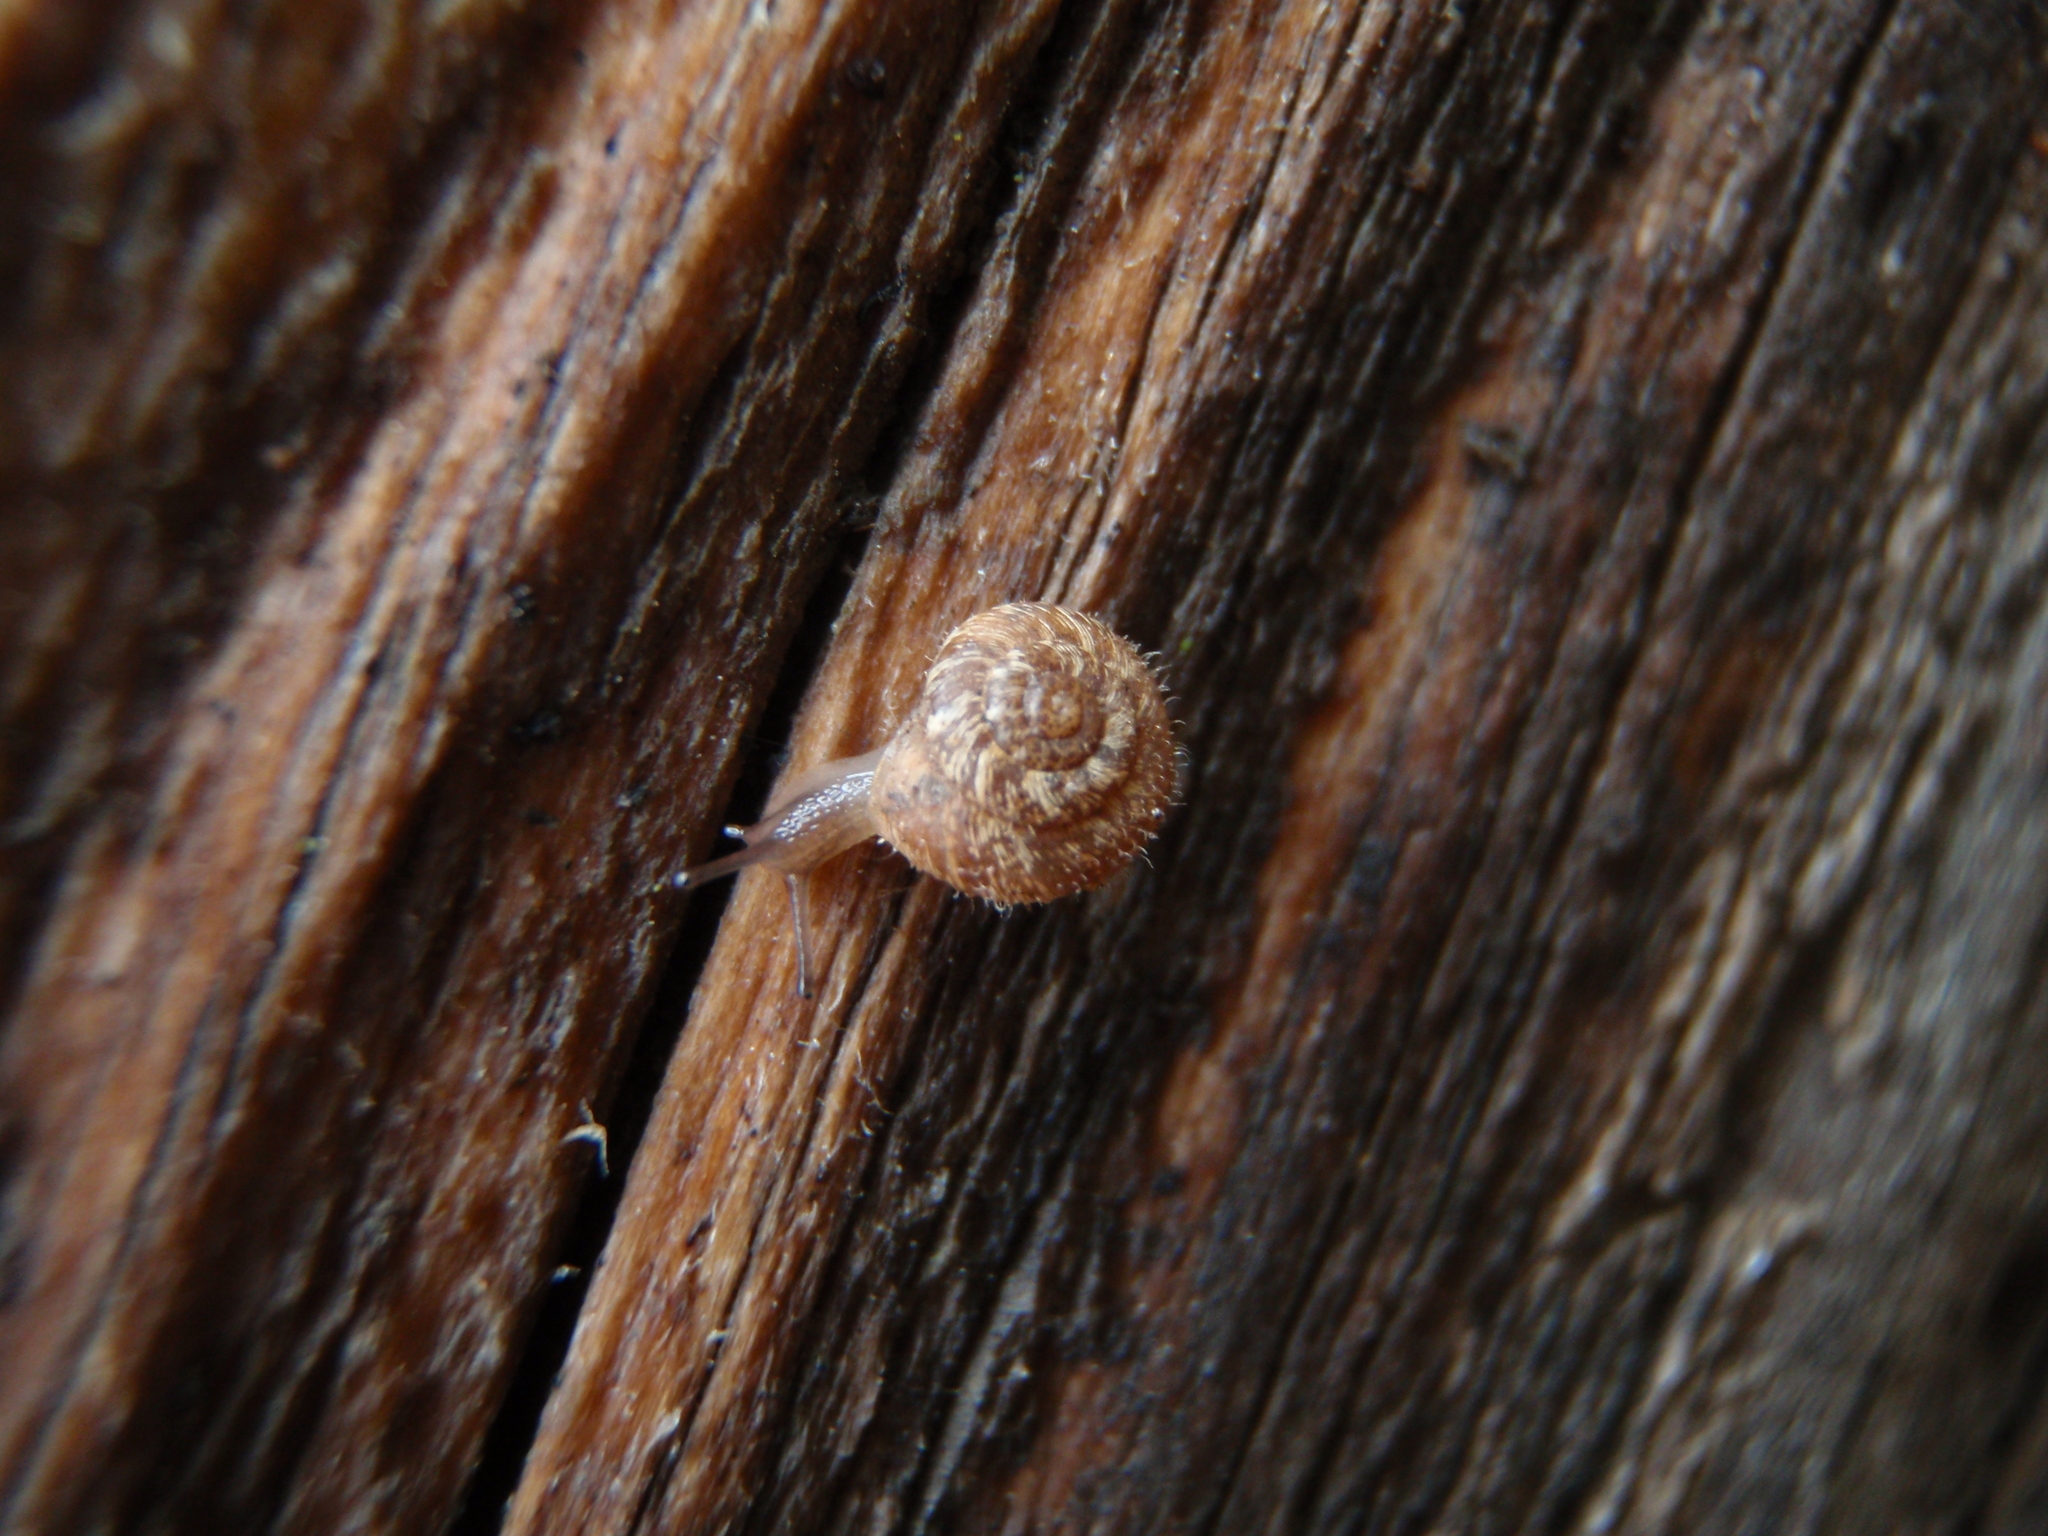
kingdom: Animalia
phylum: Mollusca
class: Gastropoda
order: Stylommatophora
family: Geomitridae
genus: Xerotricha
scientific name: Xerotricha conspurcata
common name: Snail
